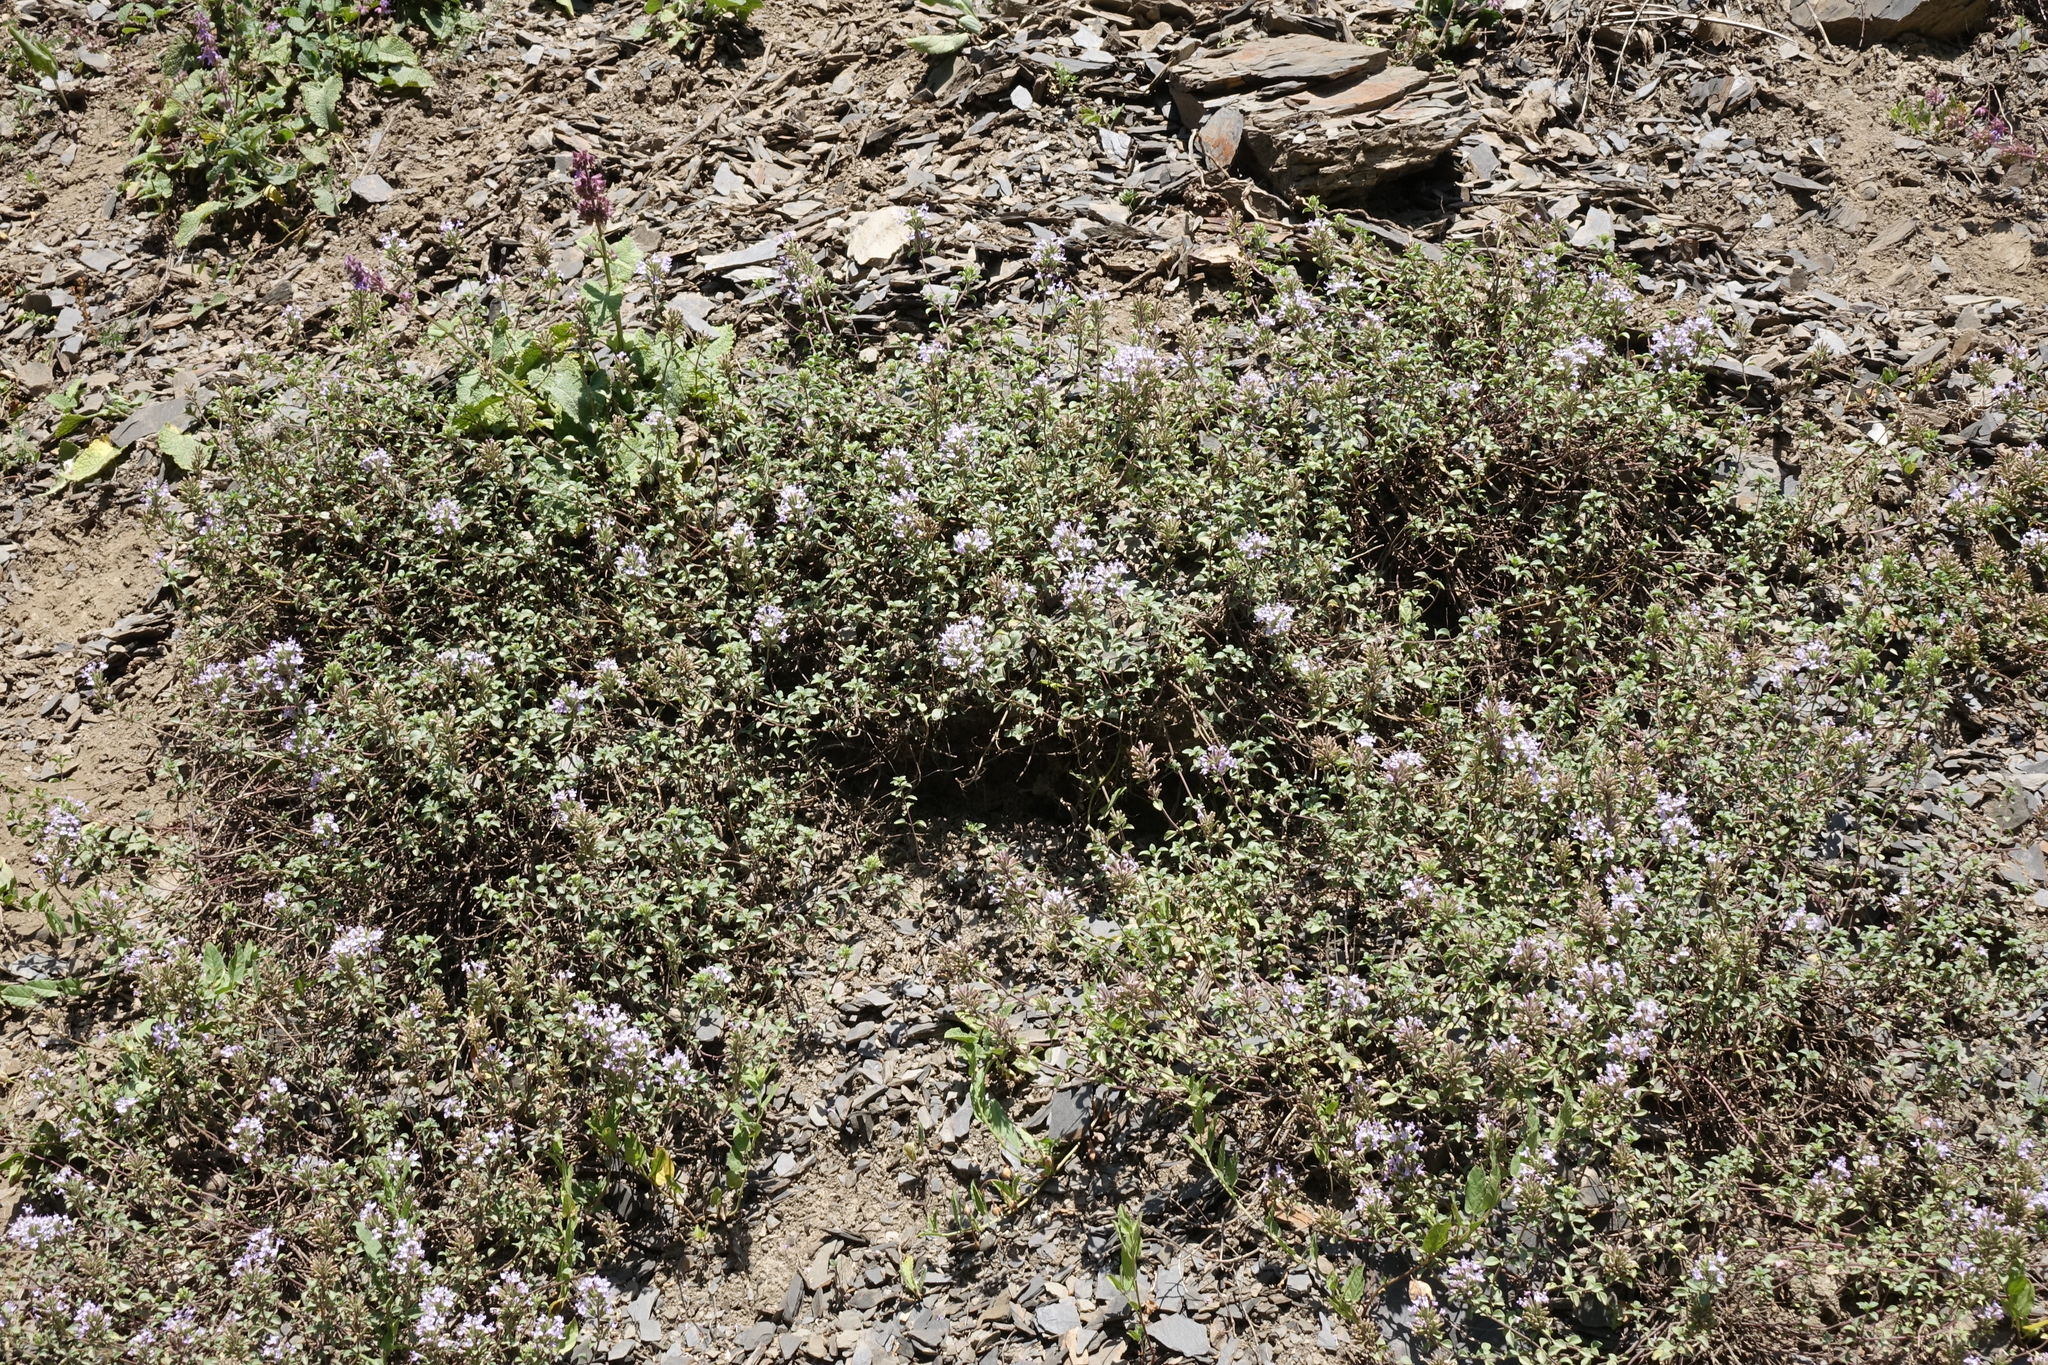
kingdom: Plantae
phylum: Tracheophyta
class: Magnoliopsida
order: Lamiales
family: Lamiaceae
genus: Ziziphora
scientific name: Ziziphora clinopodioides
